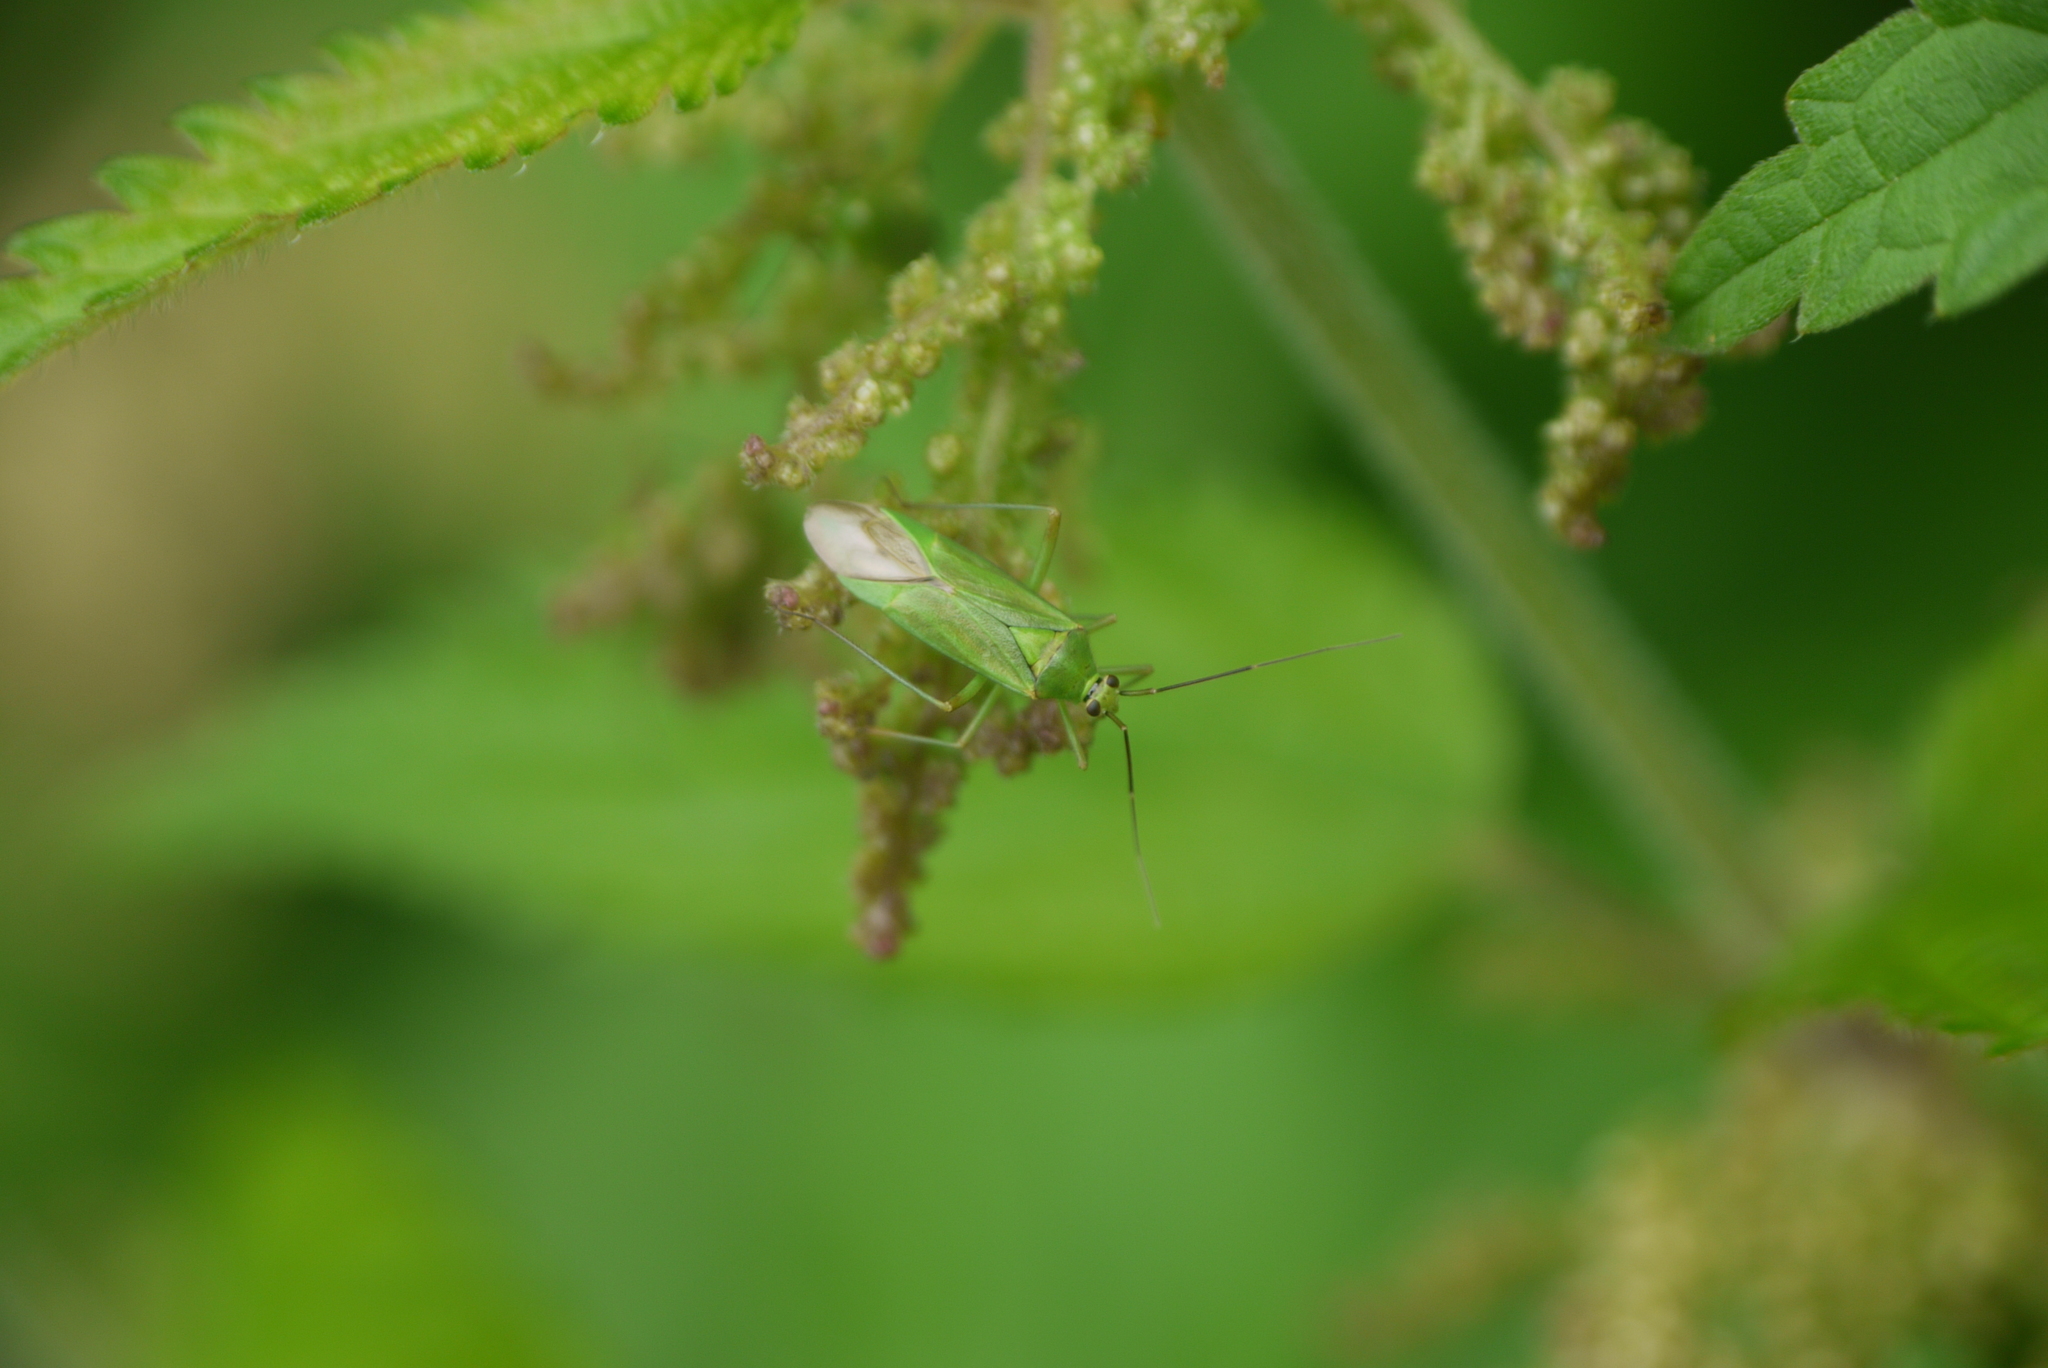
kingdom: Animalia
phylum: Arthropoda
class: Insecta
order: Hemiptera
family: Miridae
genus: Calocoris
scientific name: Calocoris alpestris
